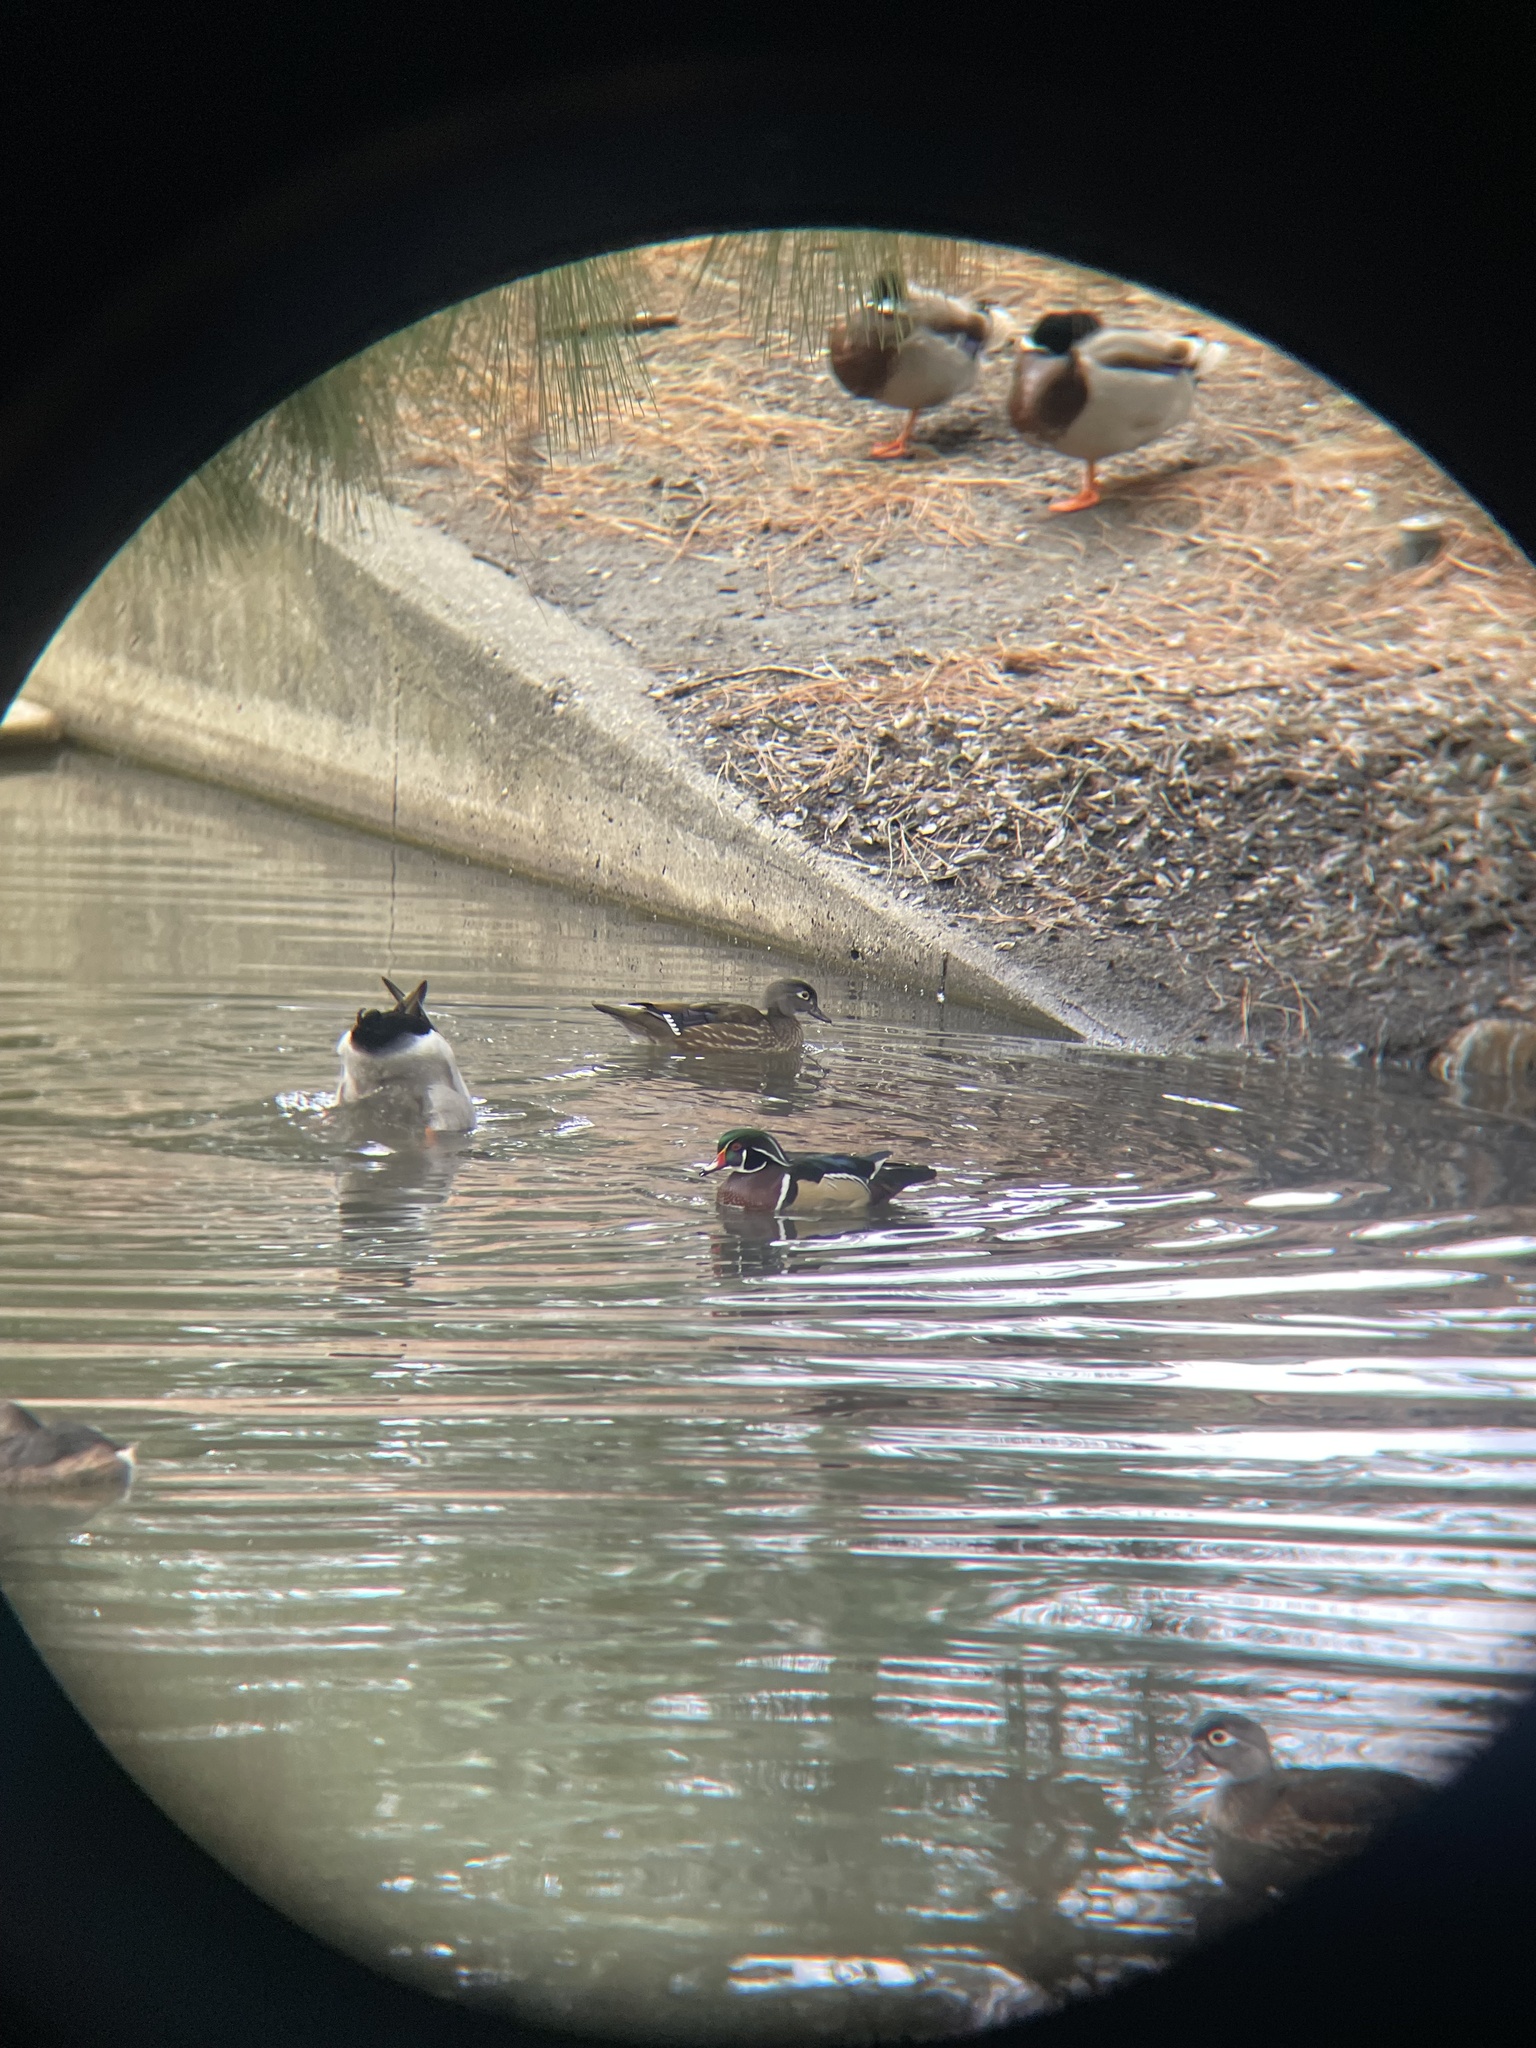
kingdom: Animalia
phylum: Chordata
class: Aves
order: Anseriformes
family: Anatidae
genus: Aix
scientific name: Aix sponsa
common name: Wood duck
